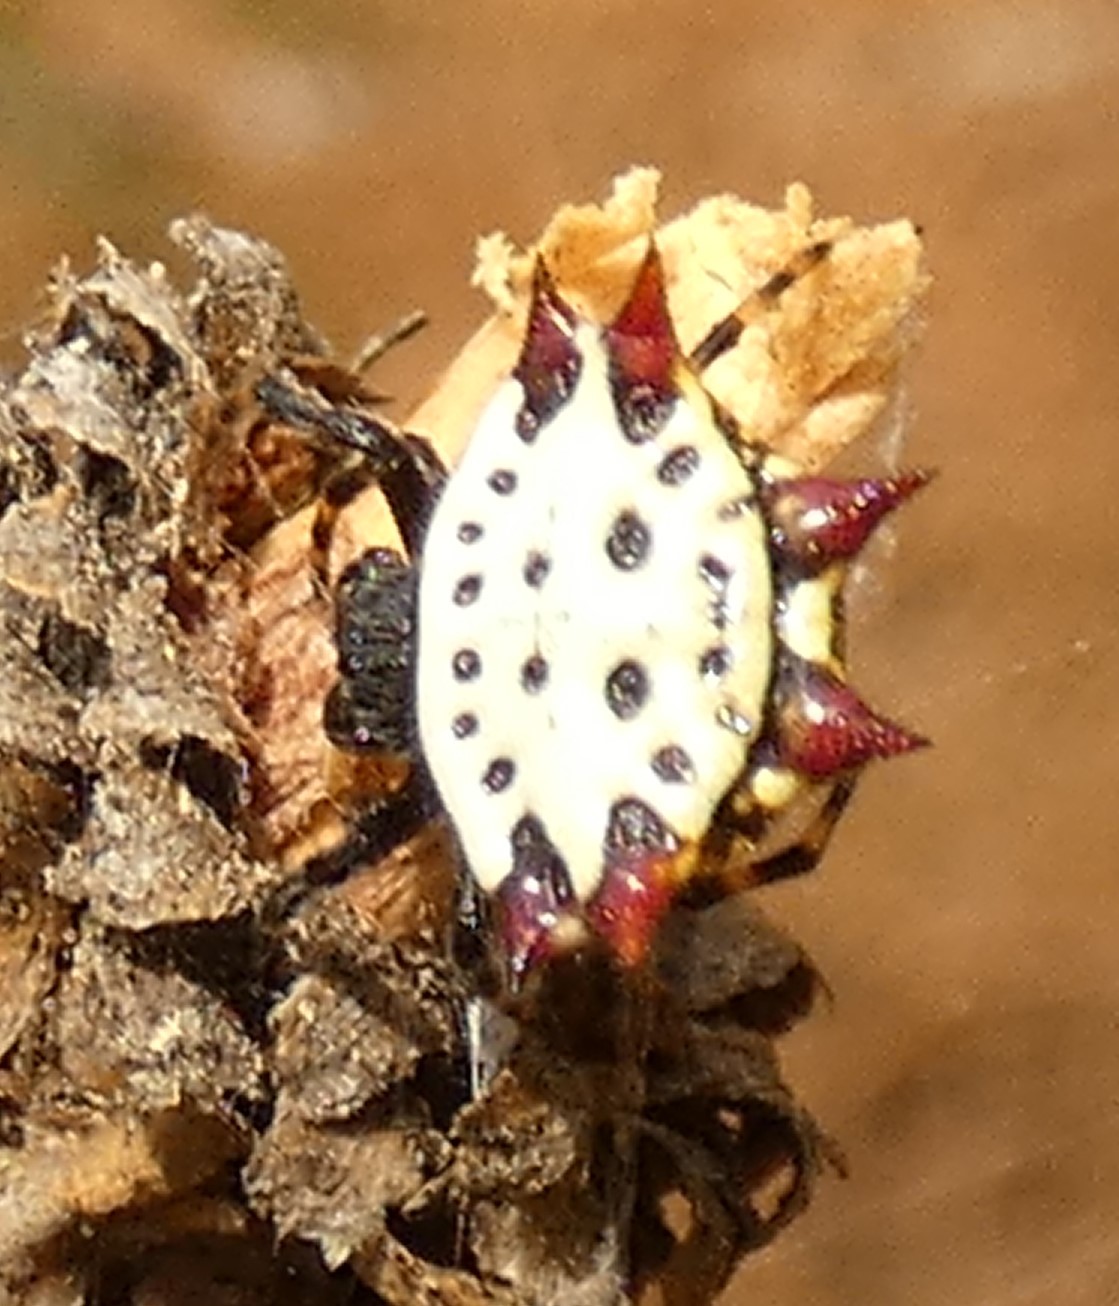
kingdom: Animalia
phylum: Arthropoda
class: Arachnida
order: Araneae
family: Araneidae
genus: Gasteracantha
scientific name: Gasteracantha cancriformis
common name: Orb weavers
